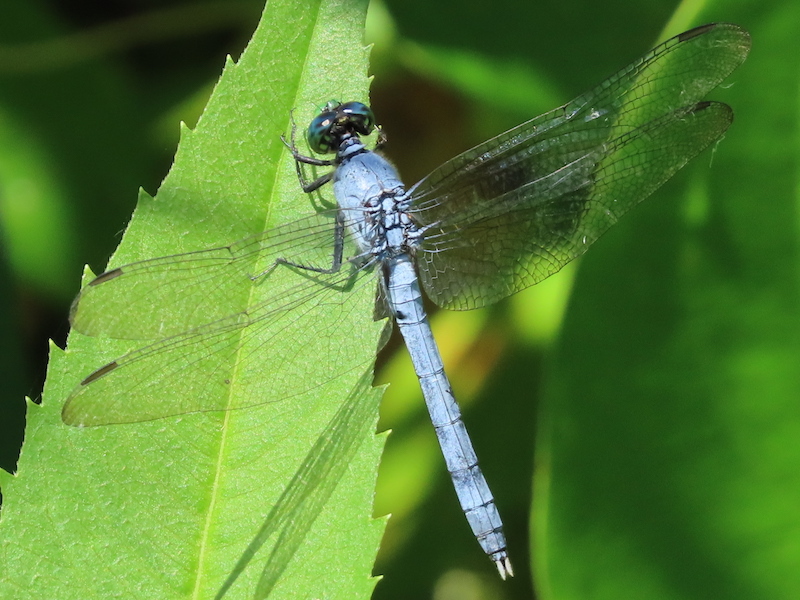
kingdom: Animalia
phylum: Arthropoda
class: Insecta
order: Odonata
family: Libellulidae
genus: Erythemis
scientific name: Erythemis simplicicollis
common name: Eastern pondhawk
